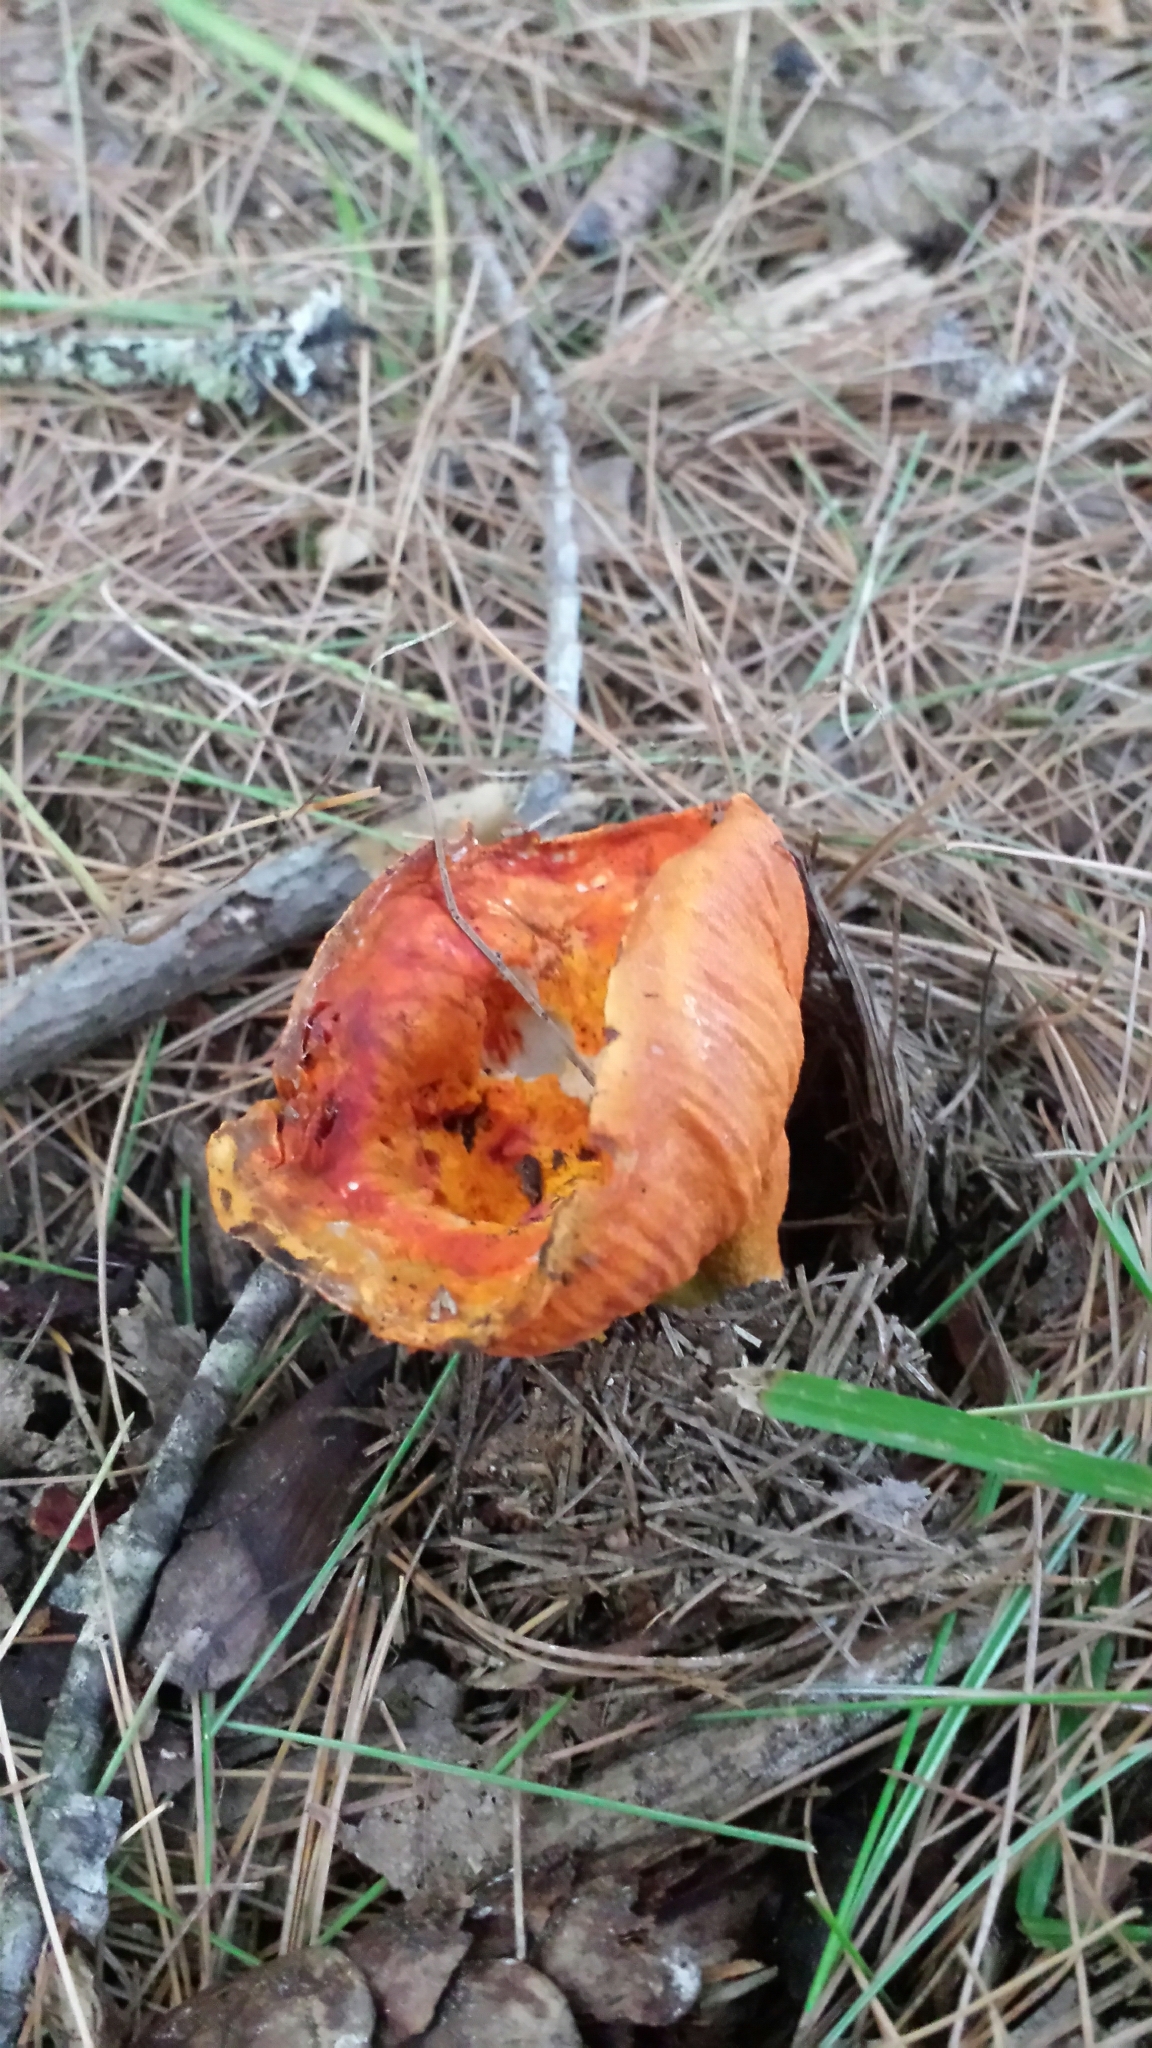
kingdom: Fungi
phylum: Ascomycota
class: Sordariomycetes
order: Hypocreales
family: Hypocreaceae
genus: Hypomyces
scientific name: Hypomyces lactifluorum
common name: Lobster mushroom
